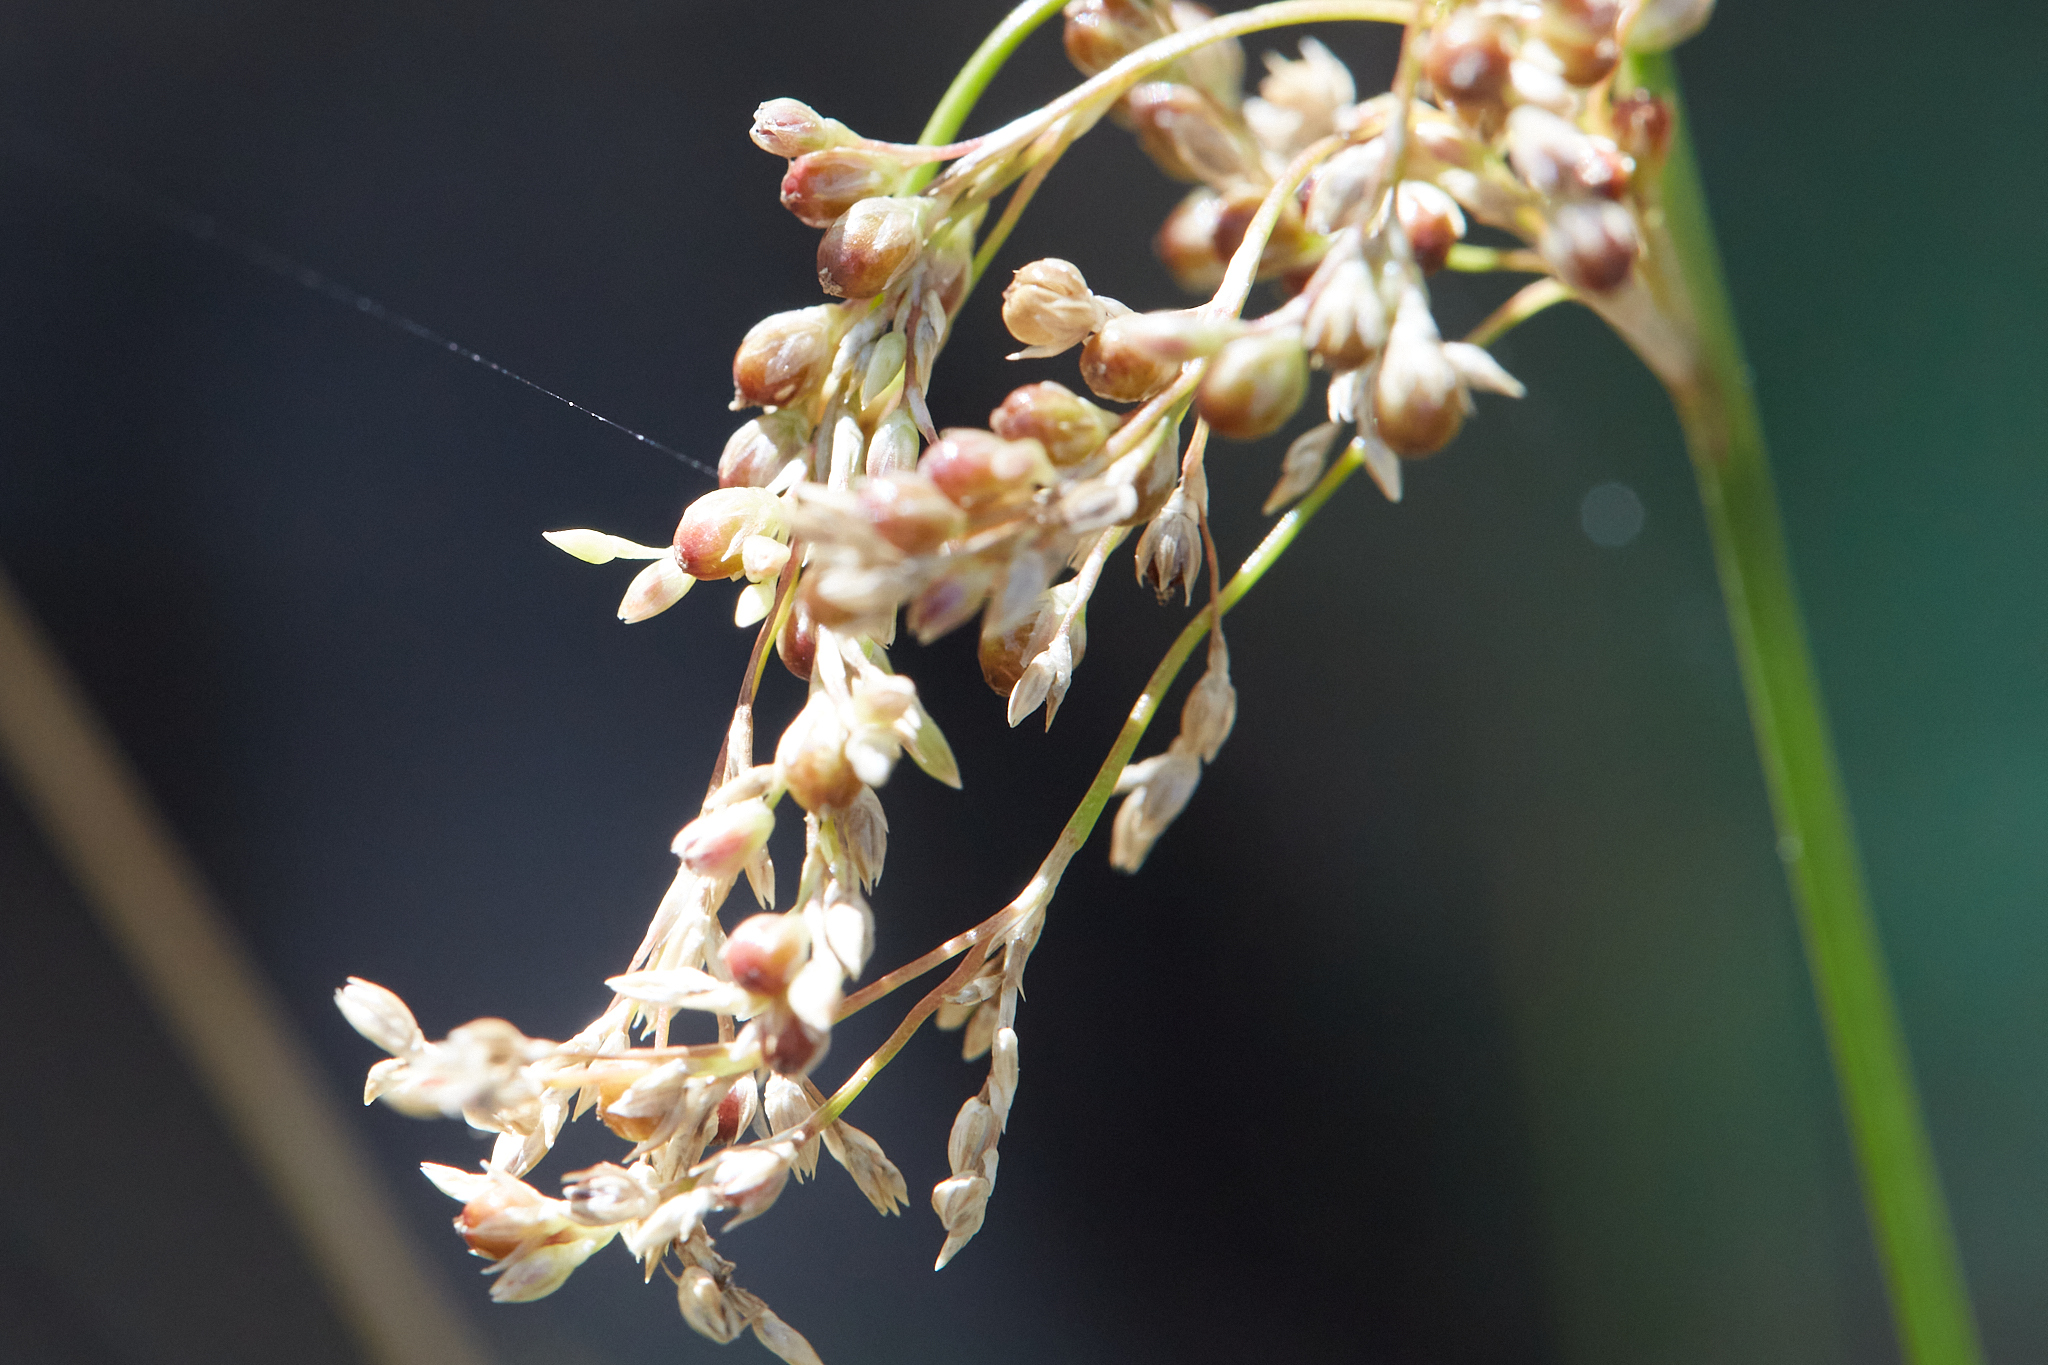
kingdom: Plantae
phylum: Tracheophyta
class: Liliopsida
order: Poales
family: Juncaceae
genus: Juncus
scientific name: Juncus usitatus
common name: Rush
